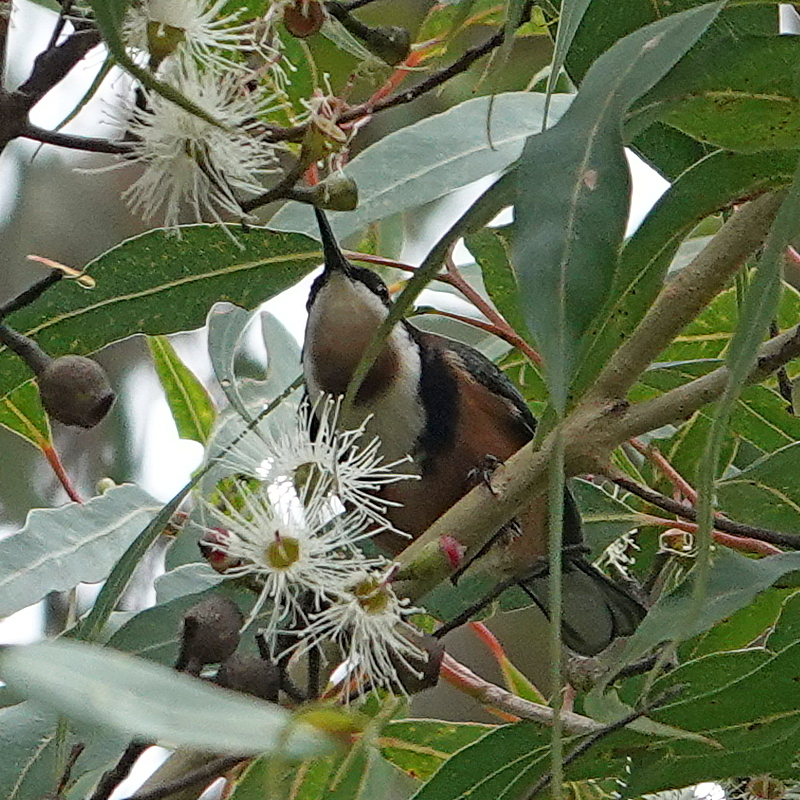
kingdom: Animalia
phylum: Chordata
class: Aves
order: Passeriformes
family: Meliphagidae
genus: Acanthorhynchus
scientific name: Acanthorhynchus tenuirostris
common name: Eastern spinebill
